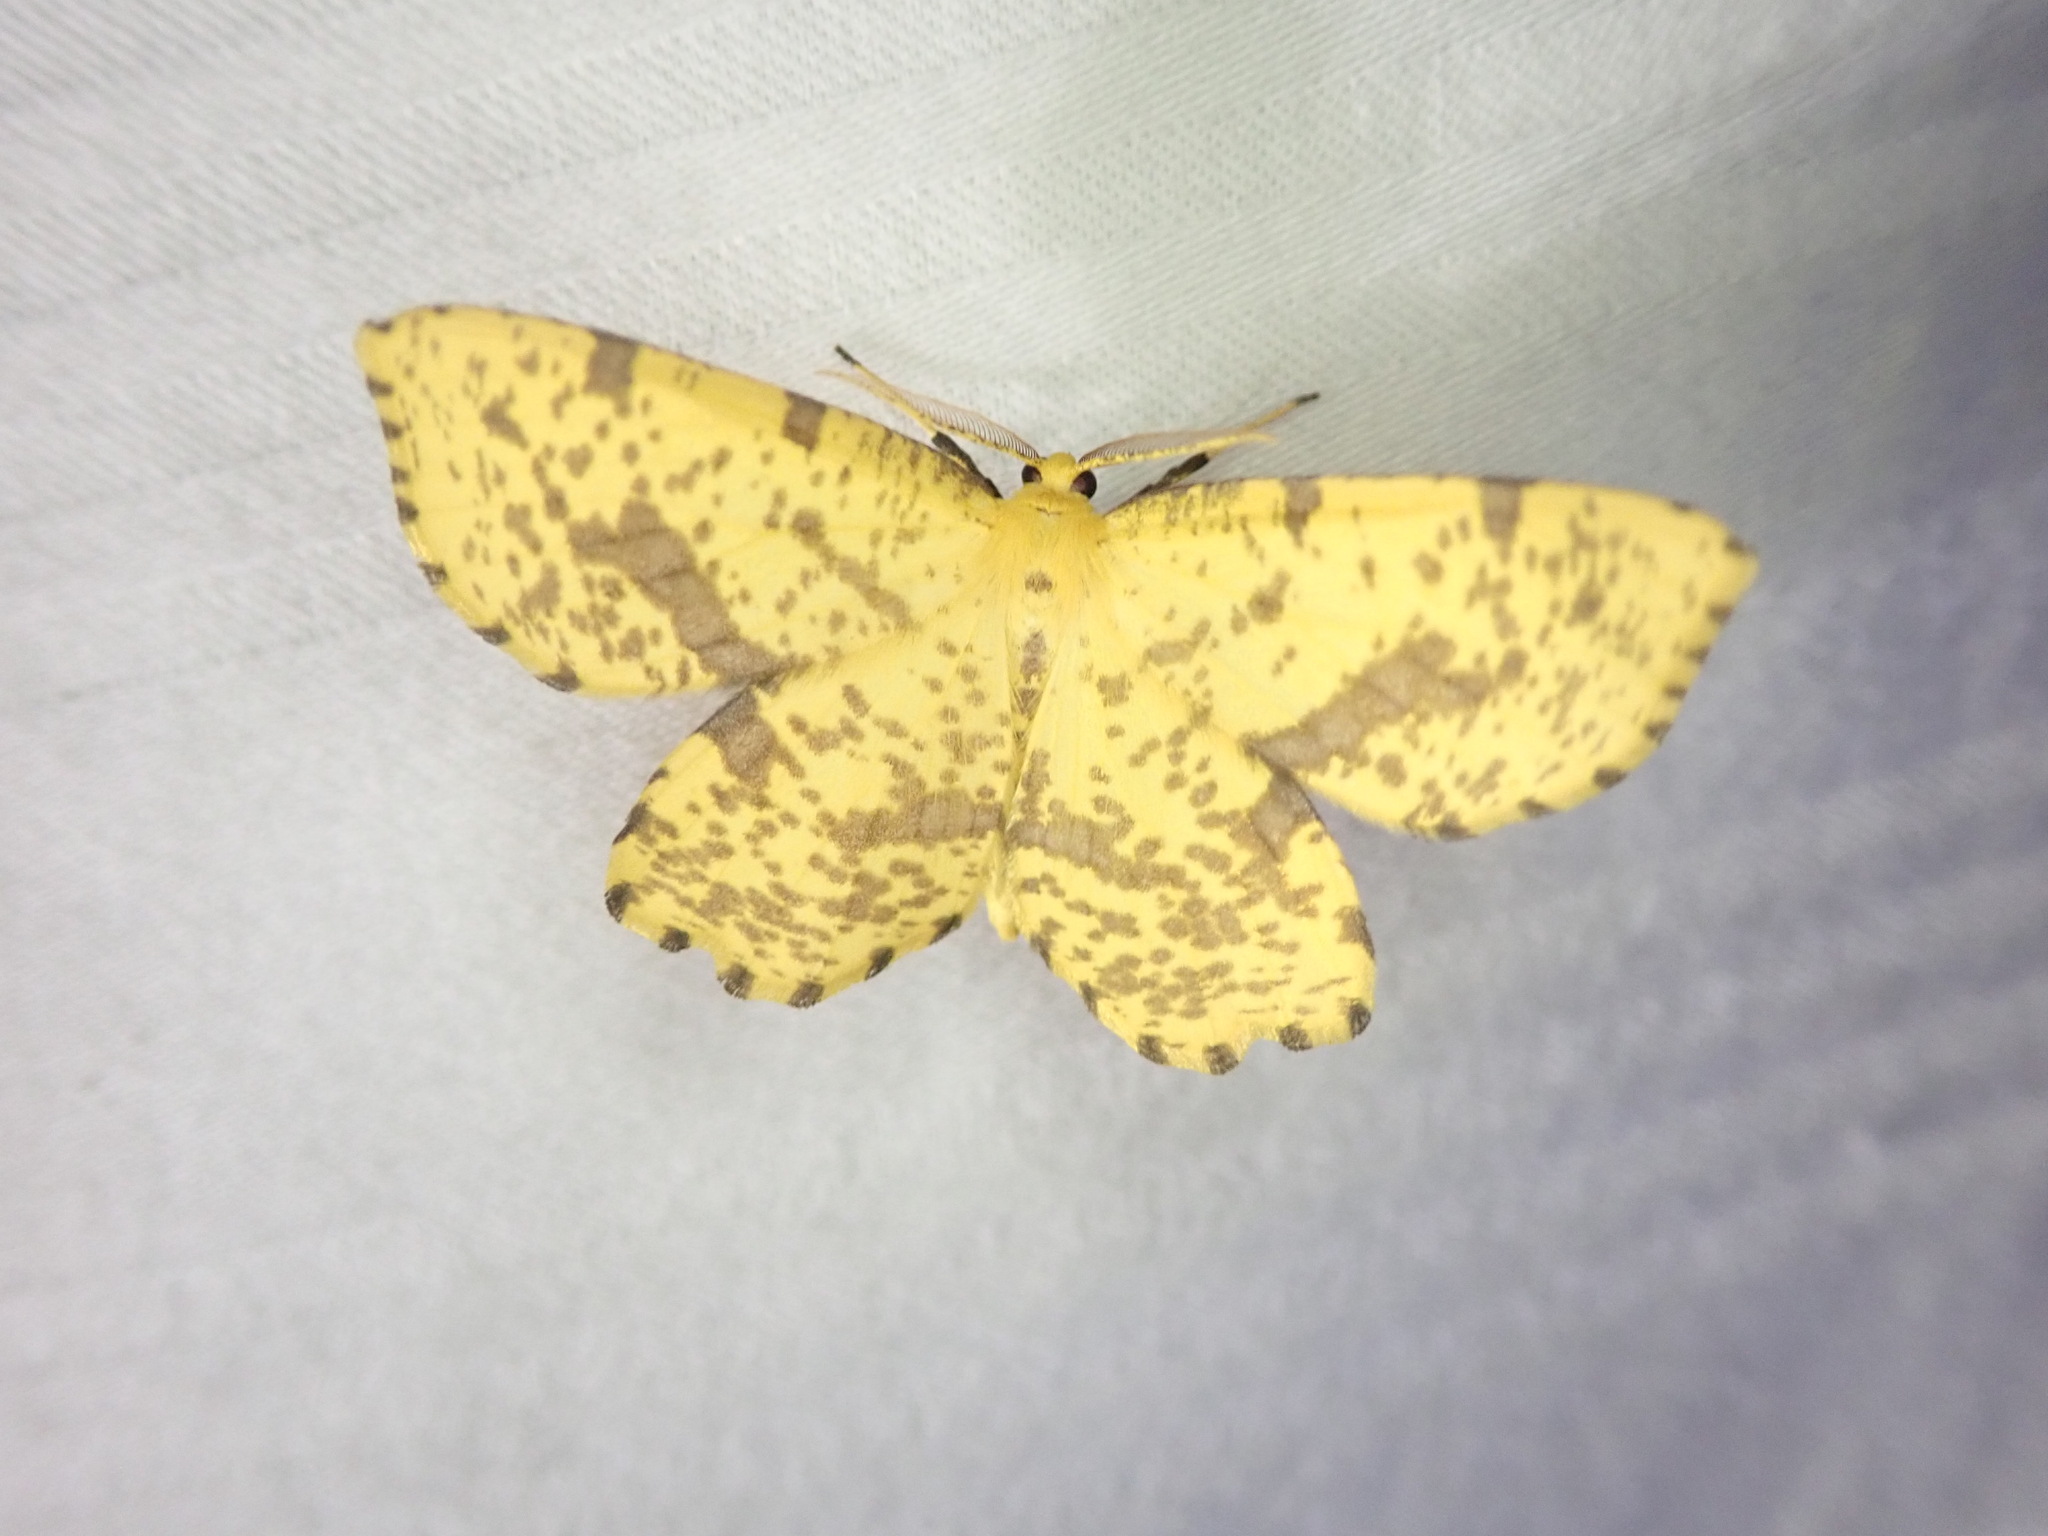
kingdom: Animalia
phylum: Arthropoda
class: Insecta
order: Lepidoptera
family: Geometridae
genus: Xanthotype
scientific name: Xanthotype
